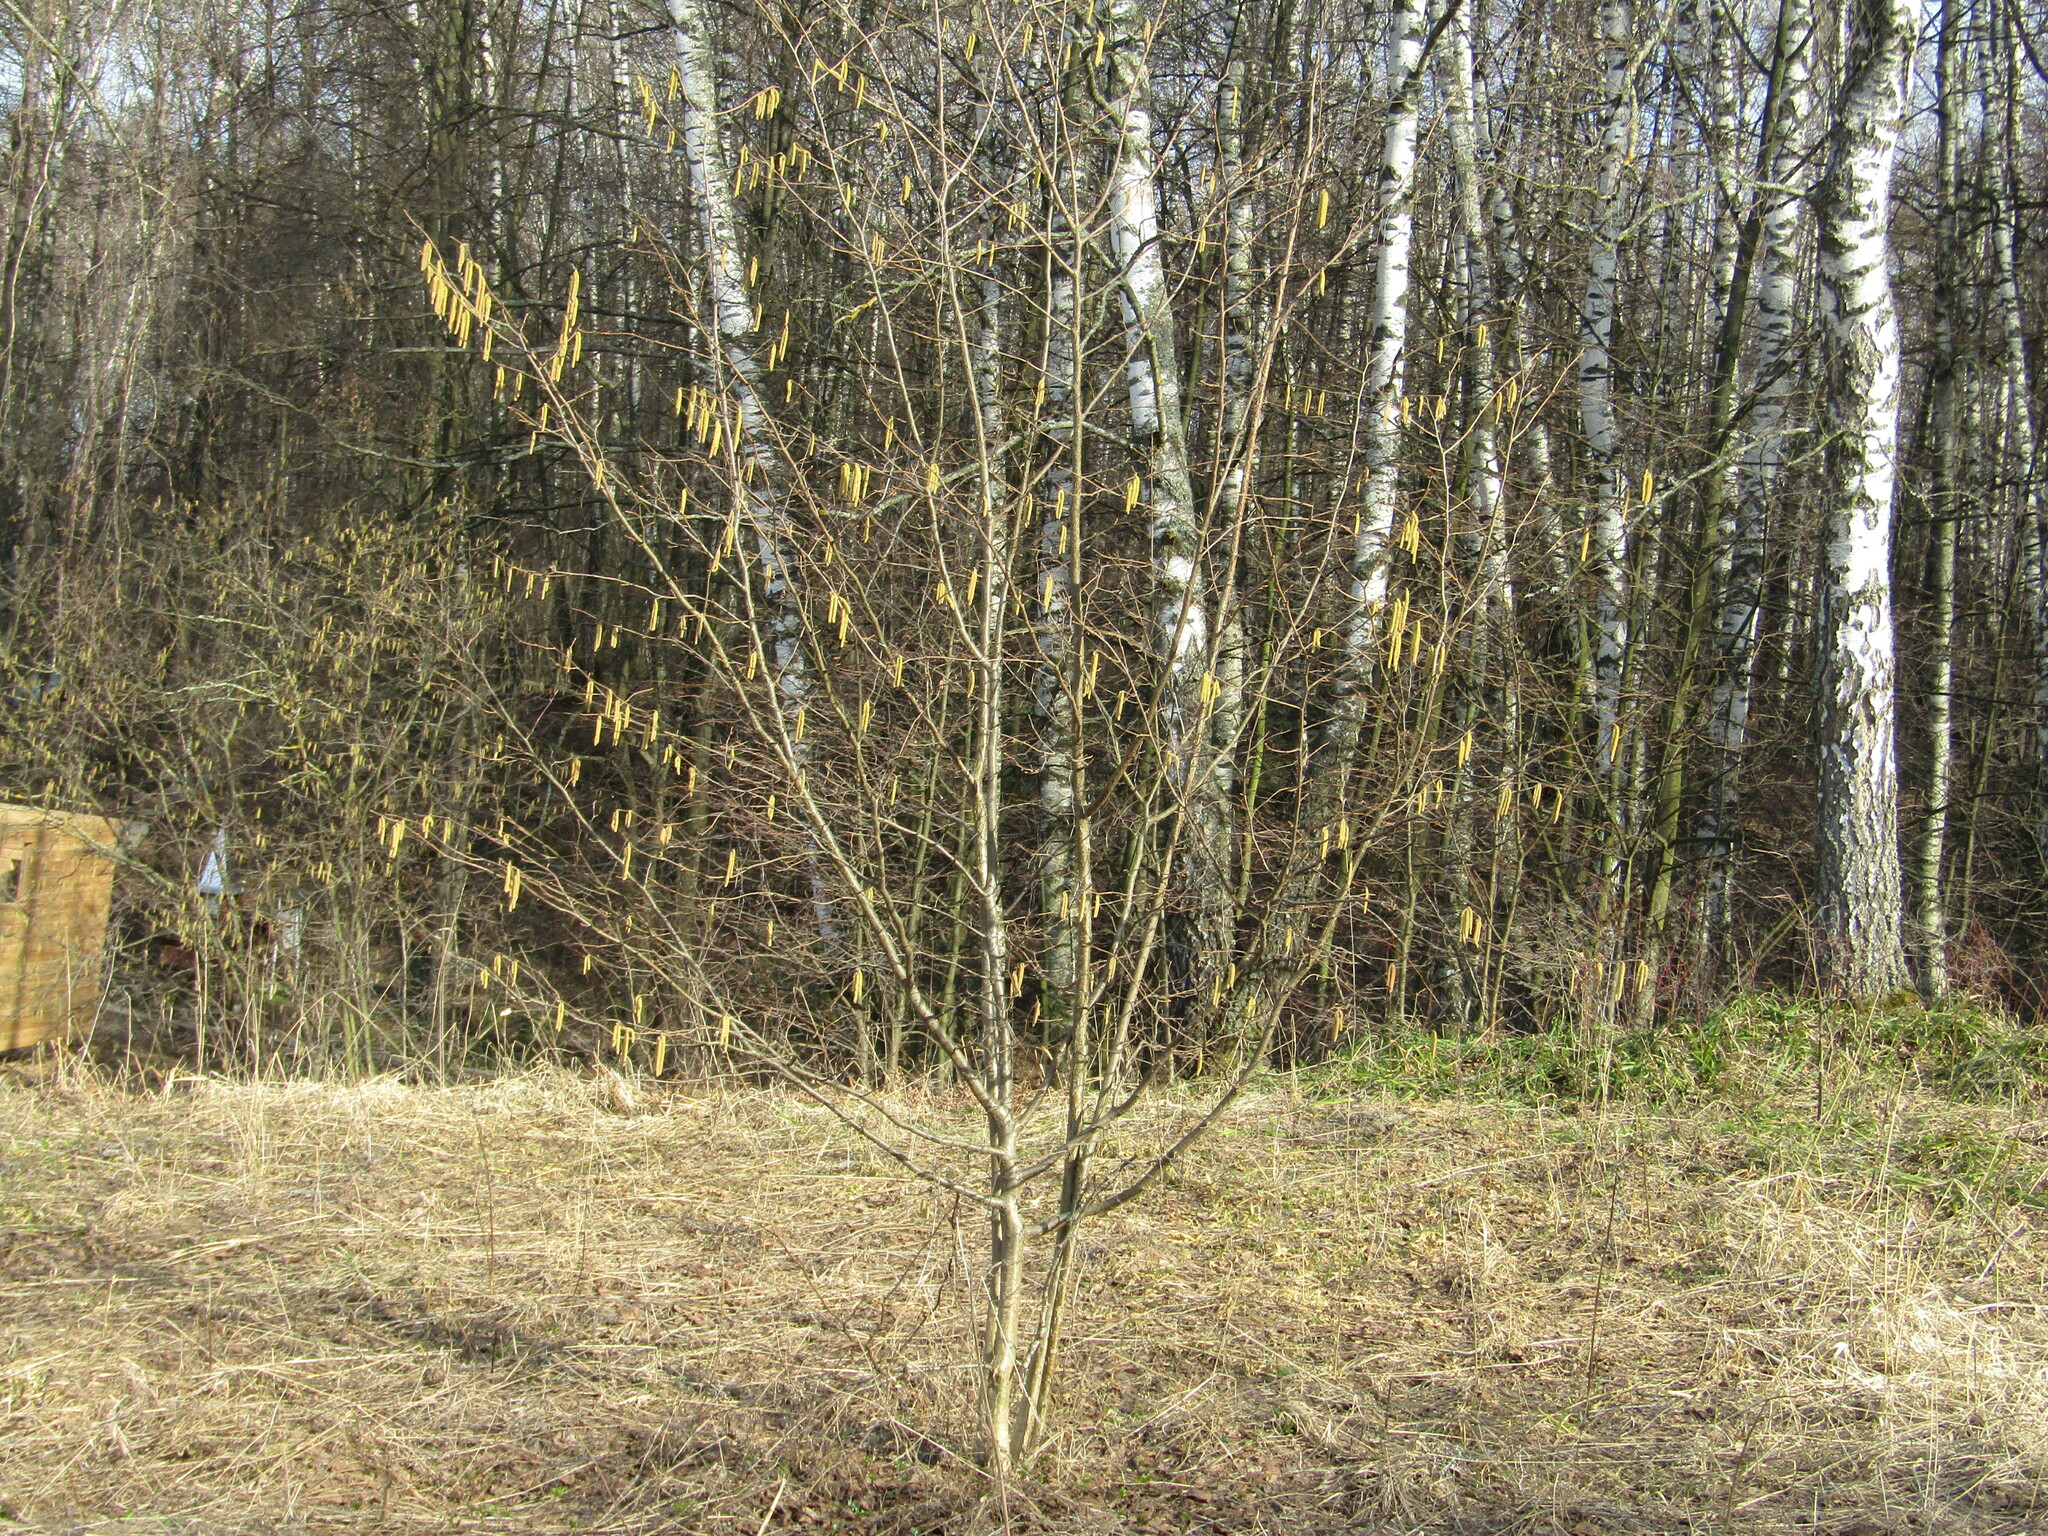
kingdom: Plantae
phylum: Tracheophyta
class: Magnoliopsida
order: Fagales
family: Betulaceae
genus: Corylus
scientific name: Corylus avellana
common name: European hazel
